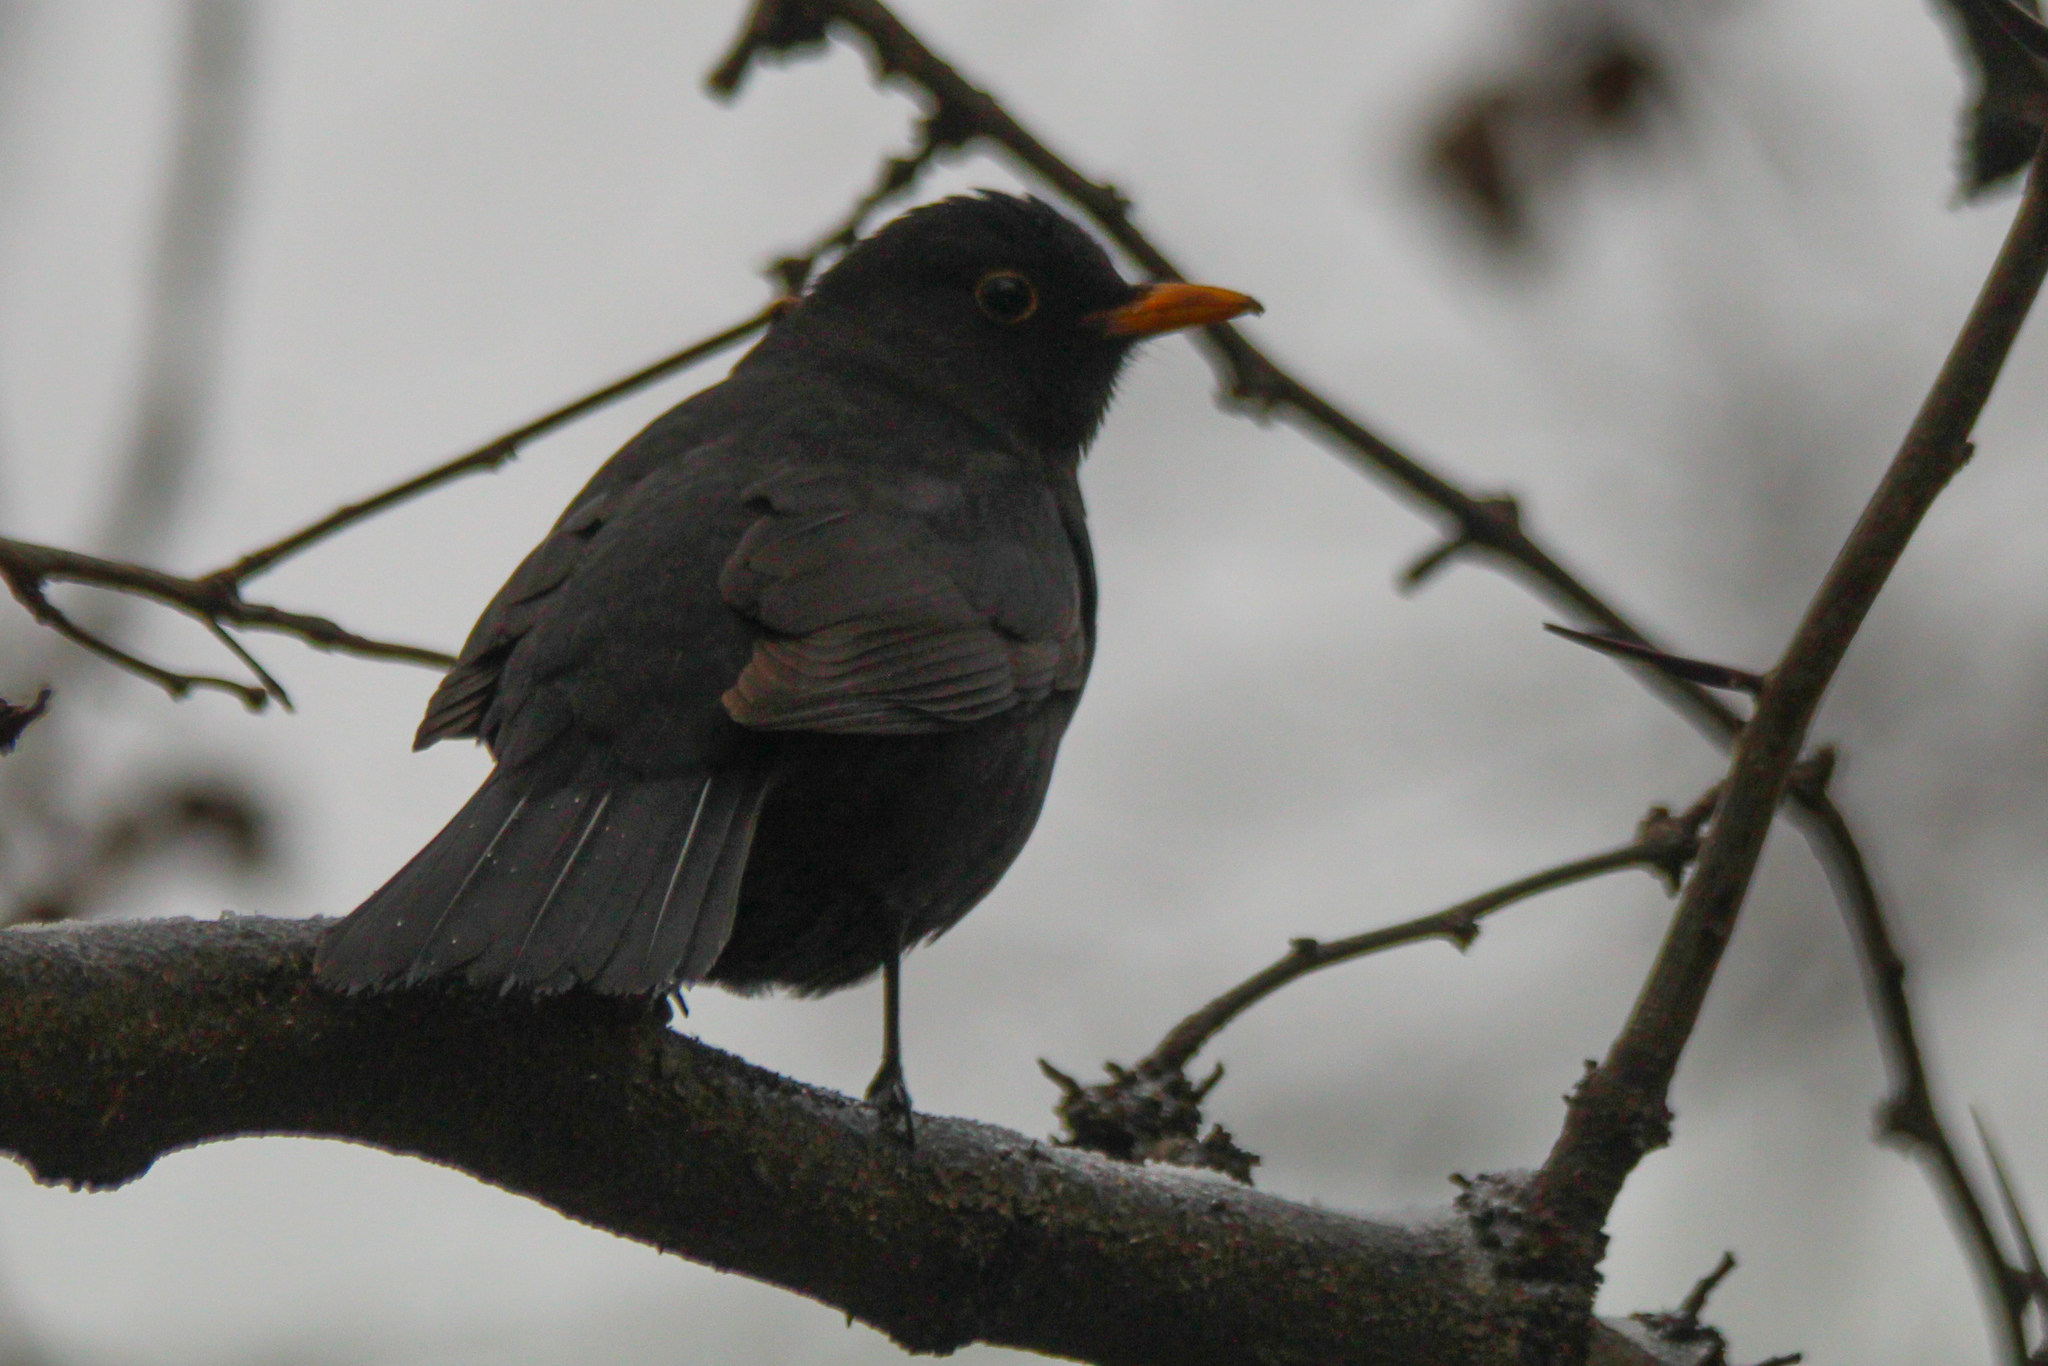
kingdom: Animalia
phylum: Chordata
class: Aves
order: Passeriformes
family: Turdidae
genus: Turdus
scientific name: Turdus merula
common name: Common blackbird
